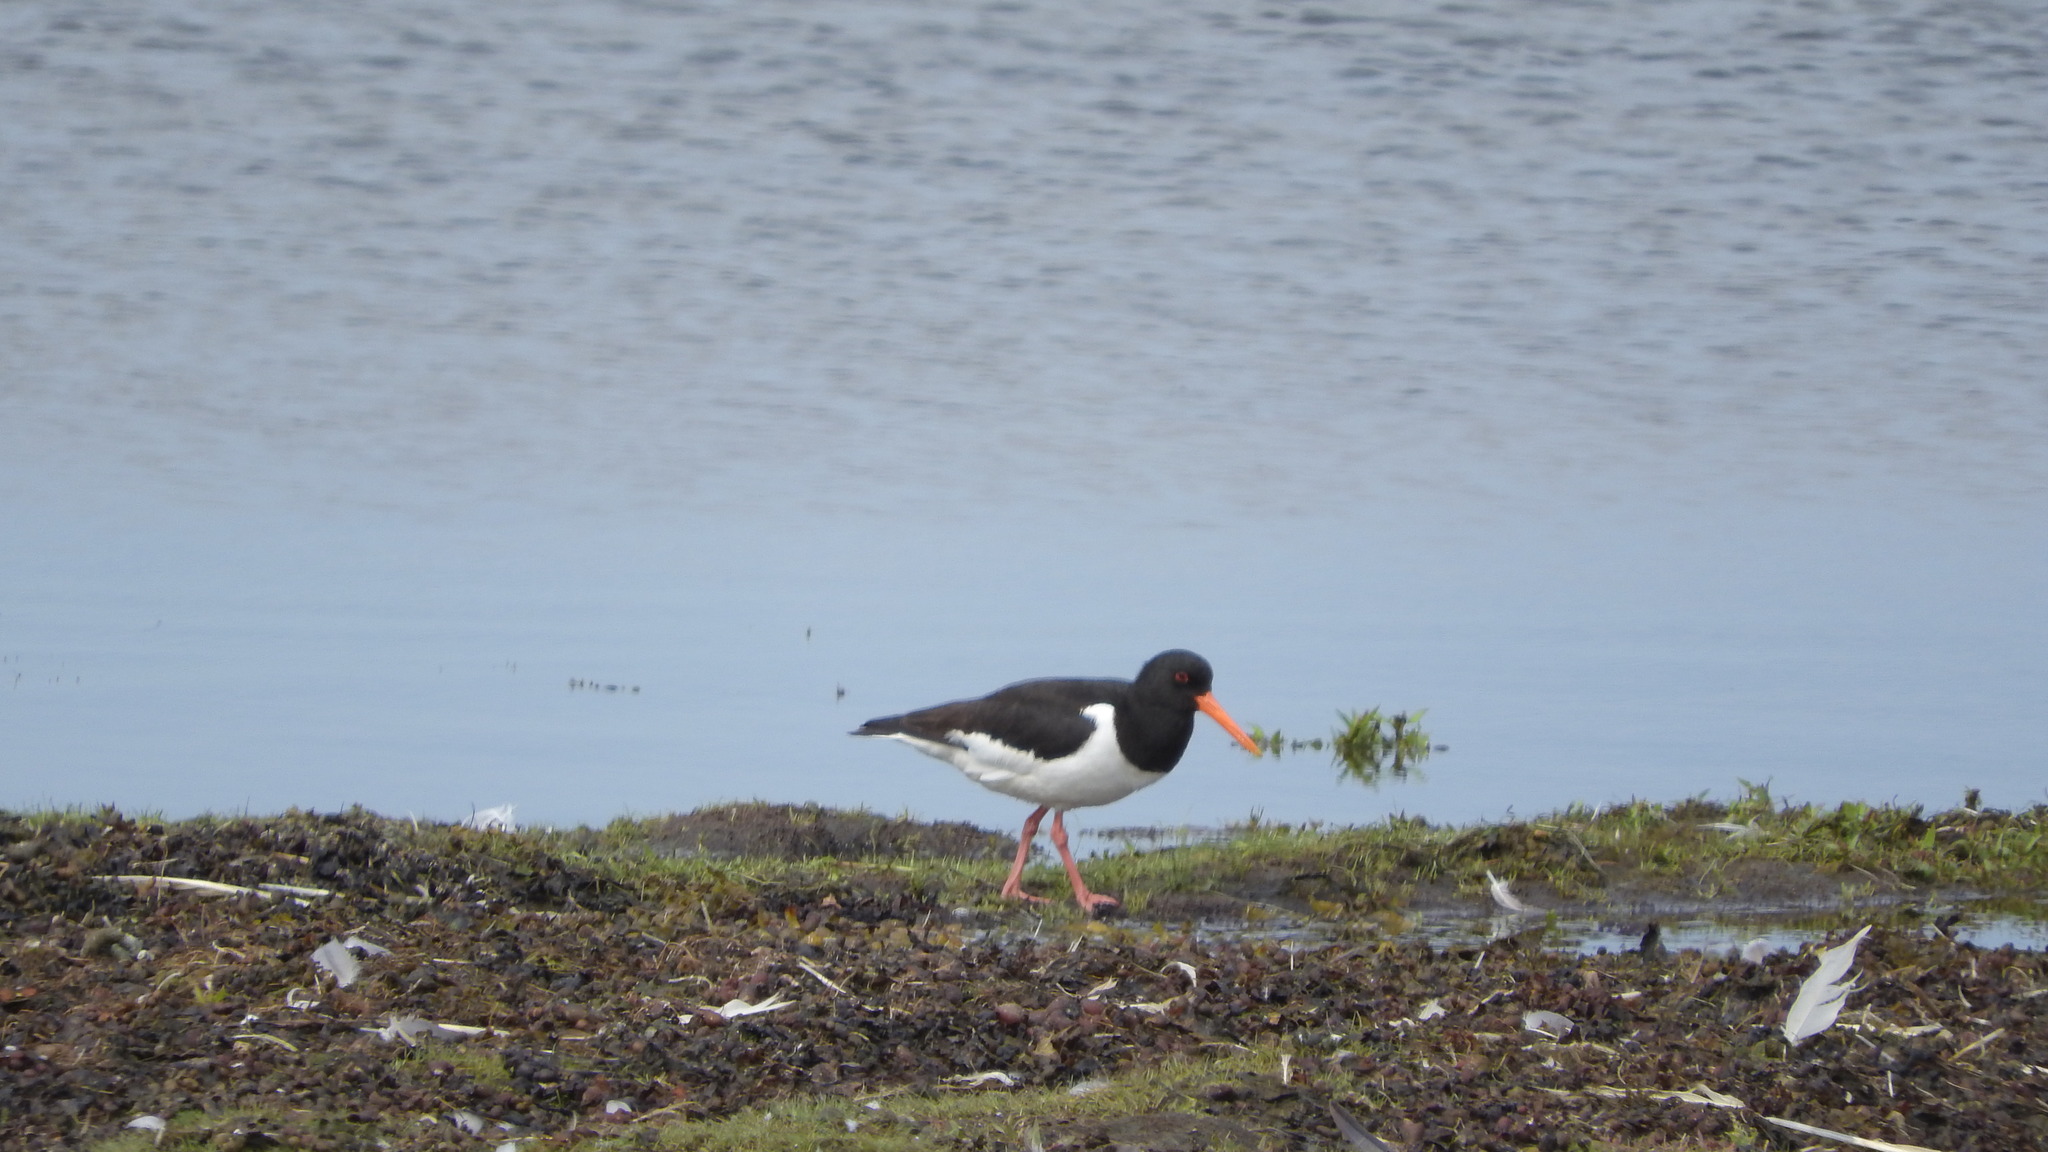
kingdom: Animalia
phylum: Chordata
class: Aves
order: Charadriiformes
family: Haematopodidae
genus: Haematopus
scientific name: Haematopus ostralegus
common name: Eurasian oystercatcher
